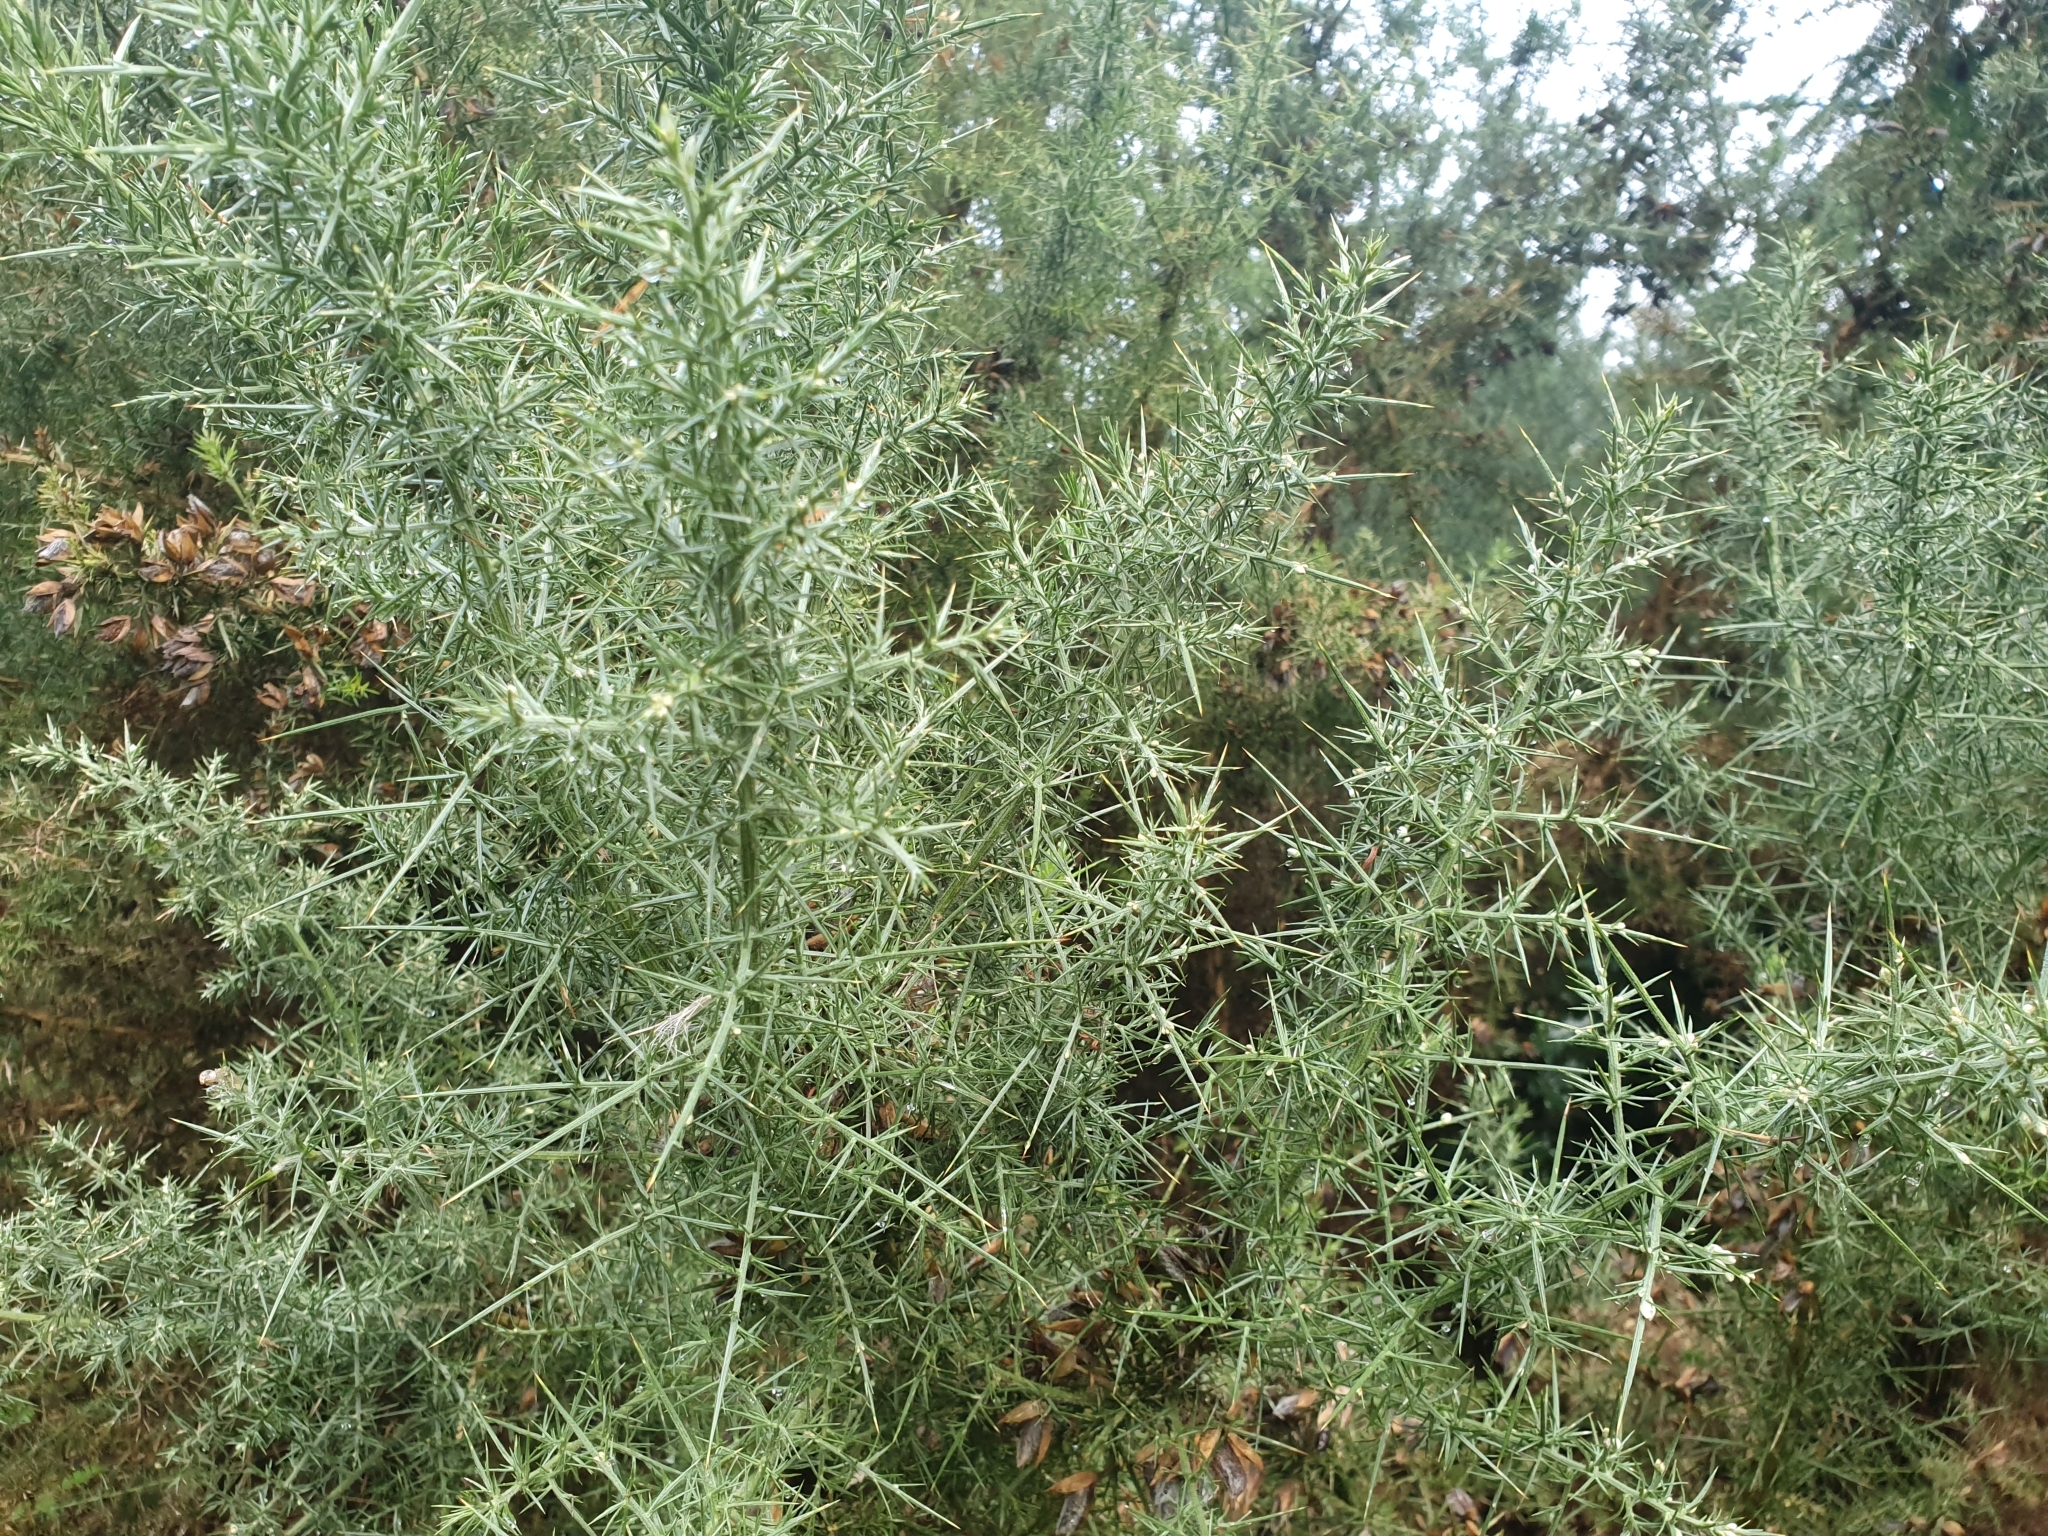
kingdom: Plantae
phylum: Tracheophyta
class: Magnoliopsida
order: Fabales
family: Fabaceae
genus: Ulex
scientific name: Ulex europaeus
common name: Common gorse
